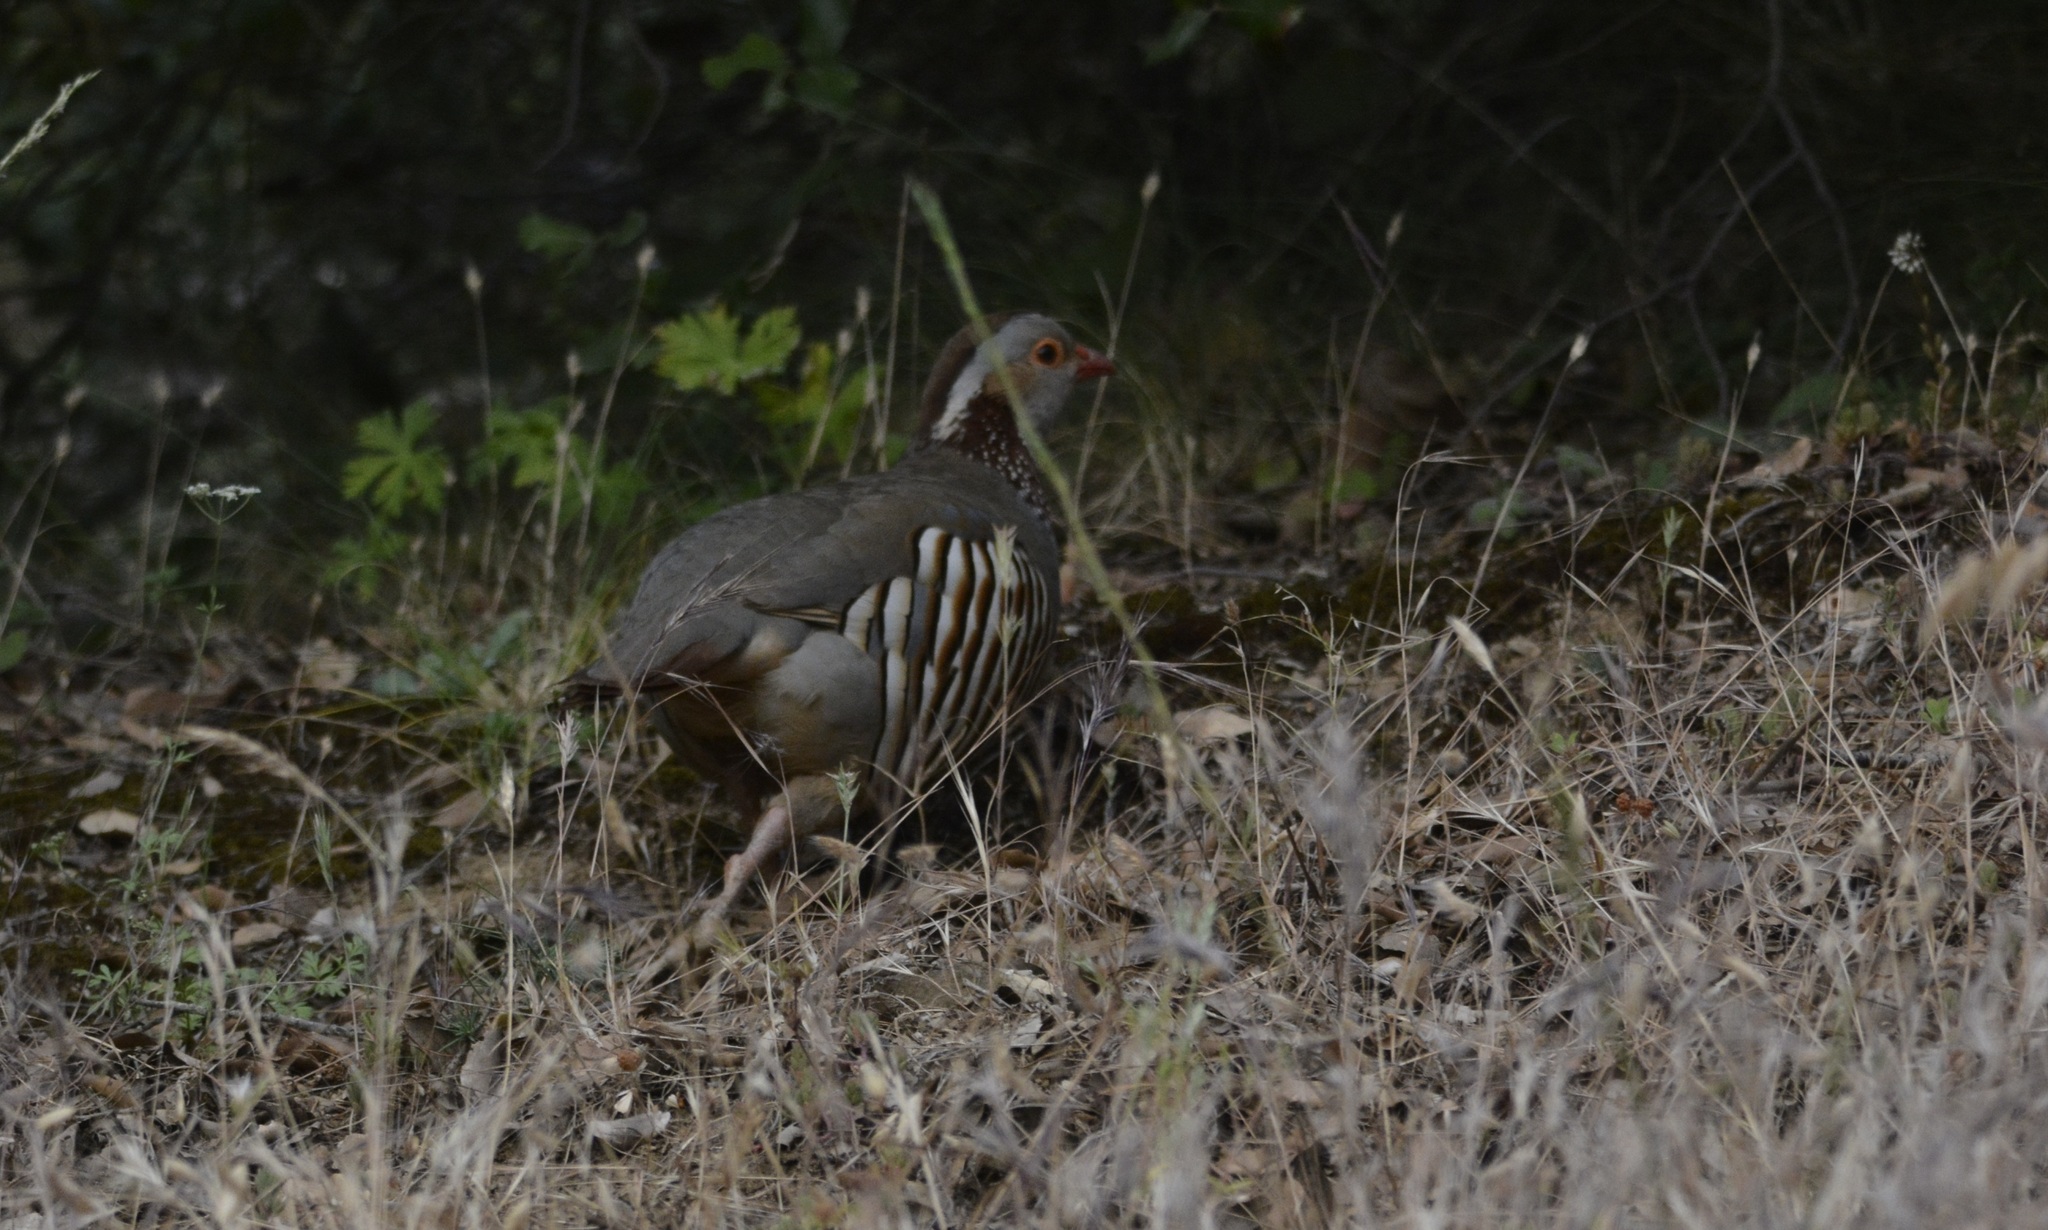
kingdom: Animalia
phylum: Chordata
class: Aves
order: Galliformes
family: Phasianidae
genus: Alectoris
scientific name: Alectoris barbara
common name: Barbary partridge
